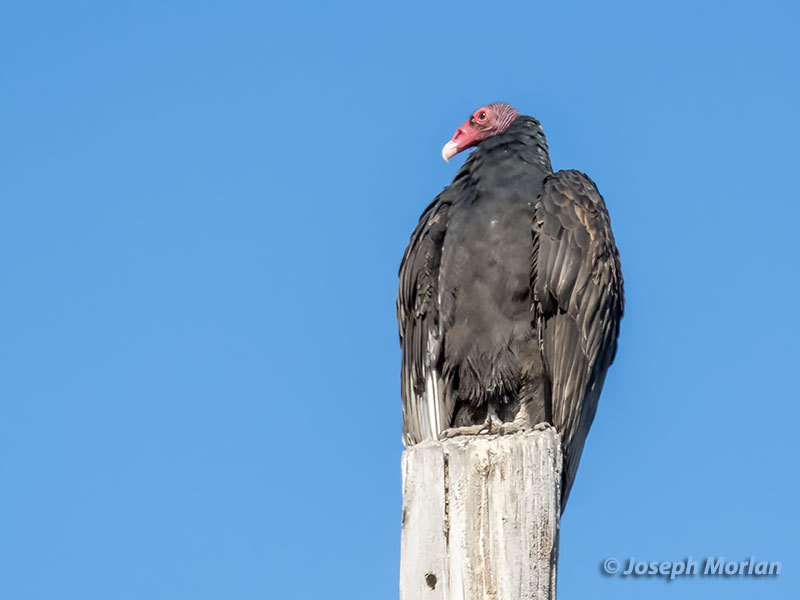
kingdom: Animalia
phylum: Chordata
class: Aves
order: Accipitriformes
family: Cathartidae
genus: Cathartes
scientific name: Cathartes aura
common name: Turkey vulture
